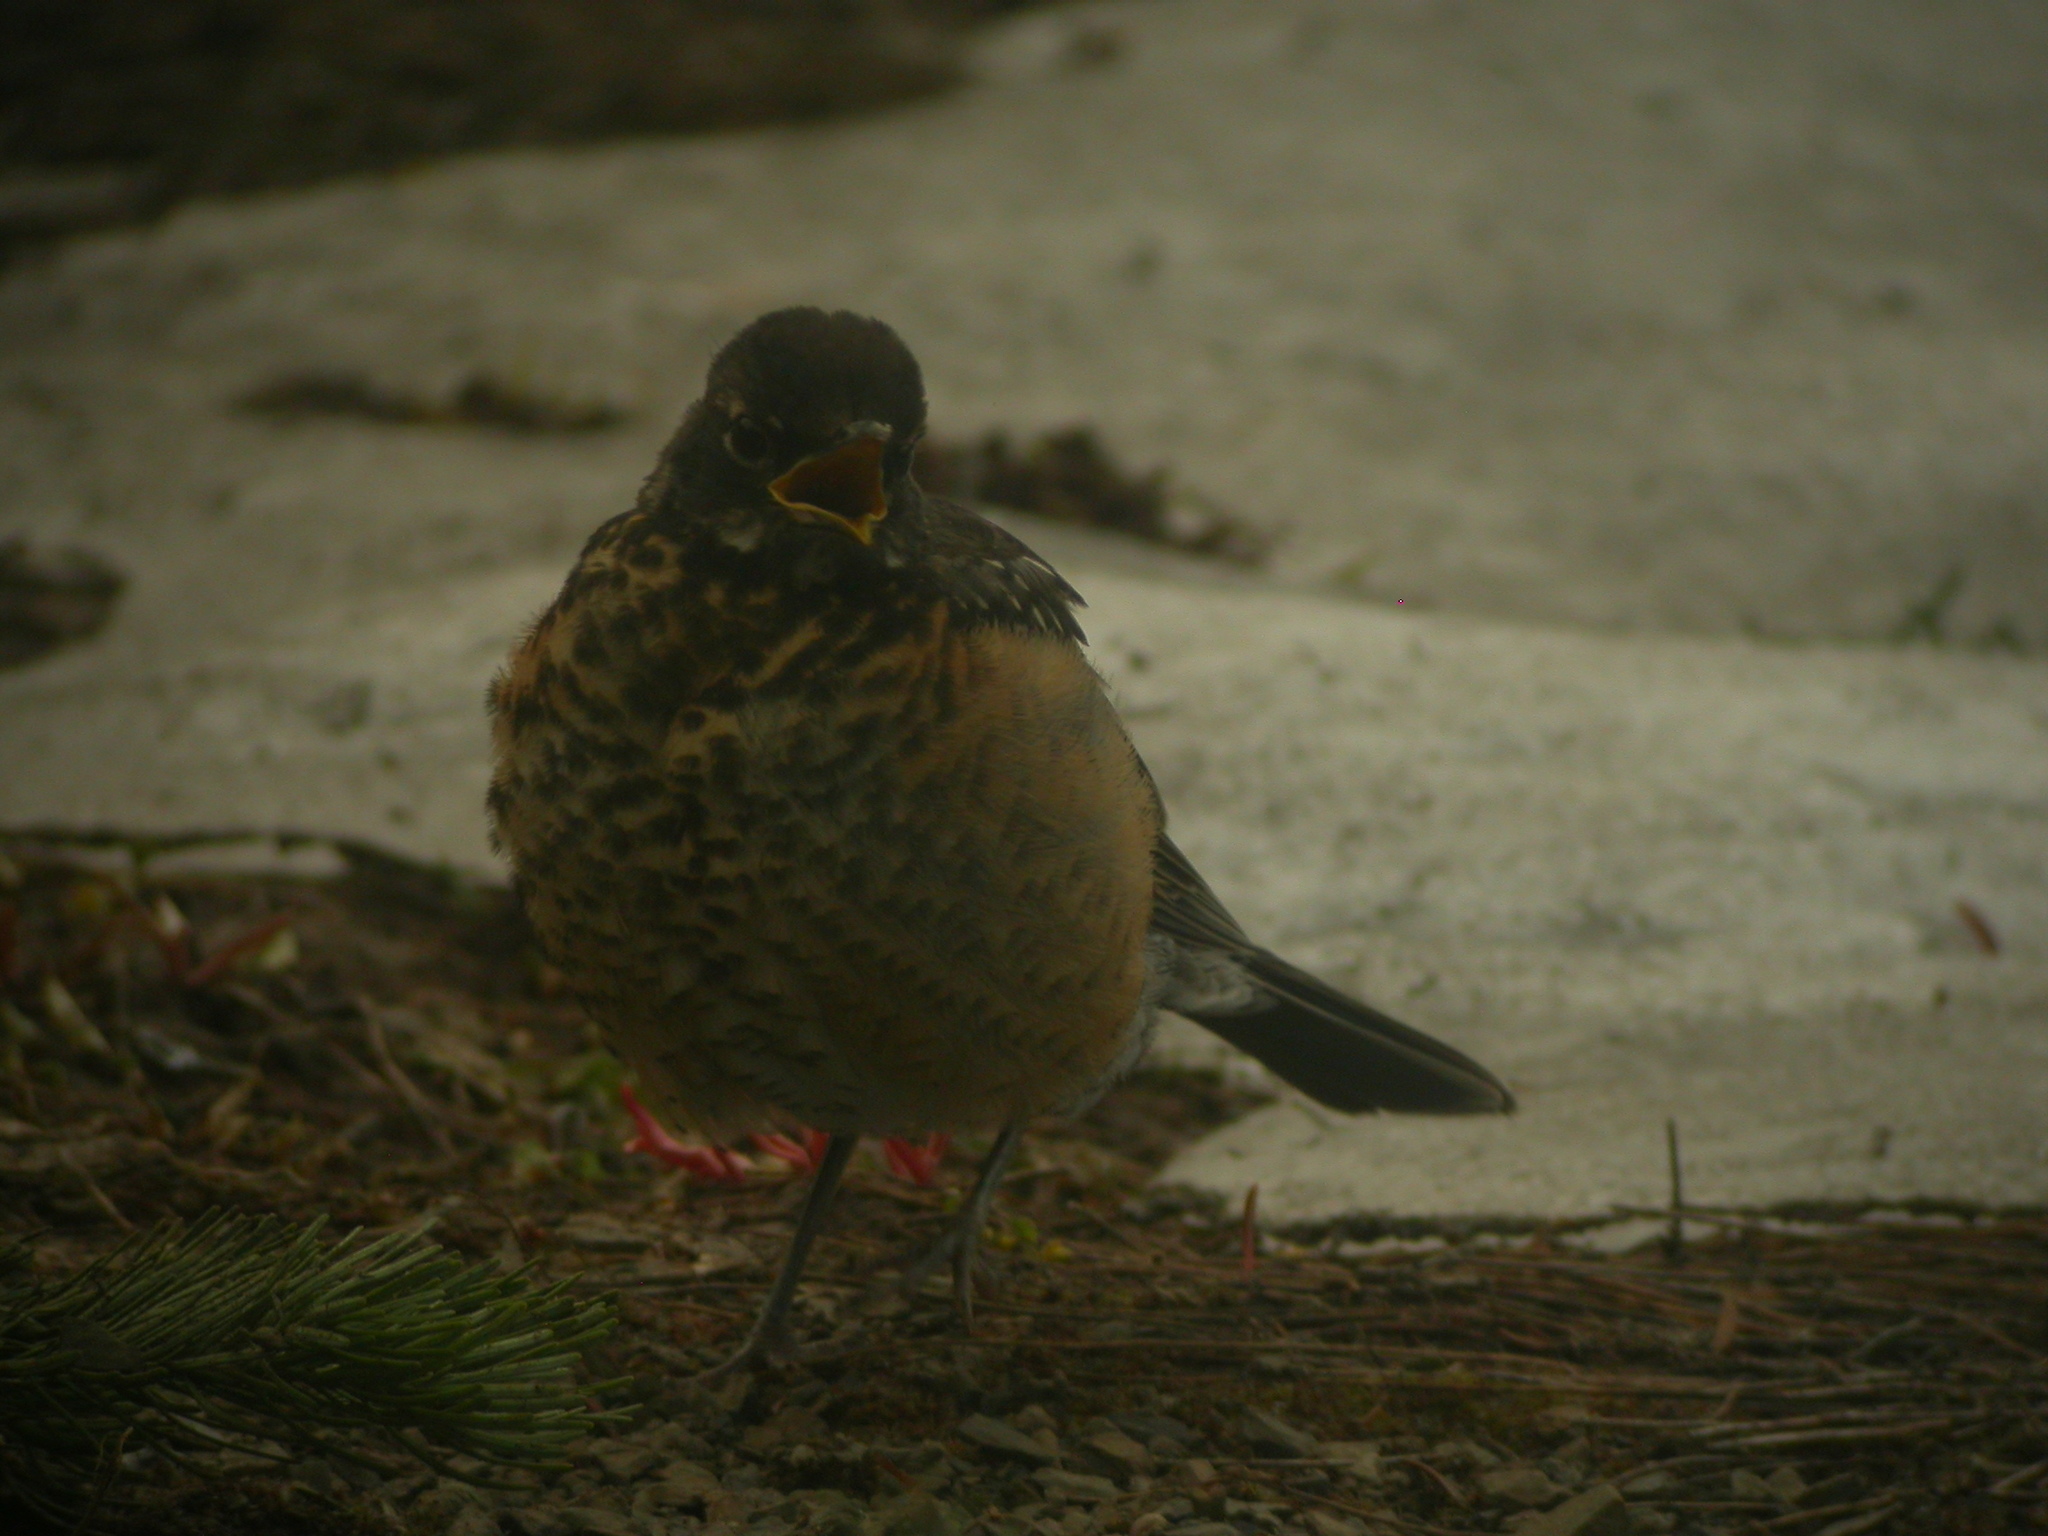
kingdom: Animalia
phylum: Chordata
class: Aves
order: Passeriformes
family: Turdidae
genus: Turdus
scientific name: Turdus migratorius
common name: American robin
